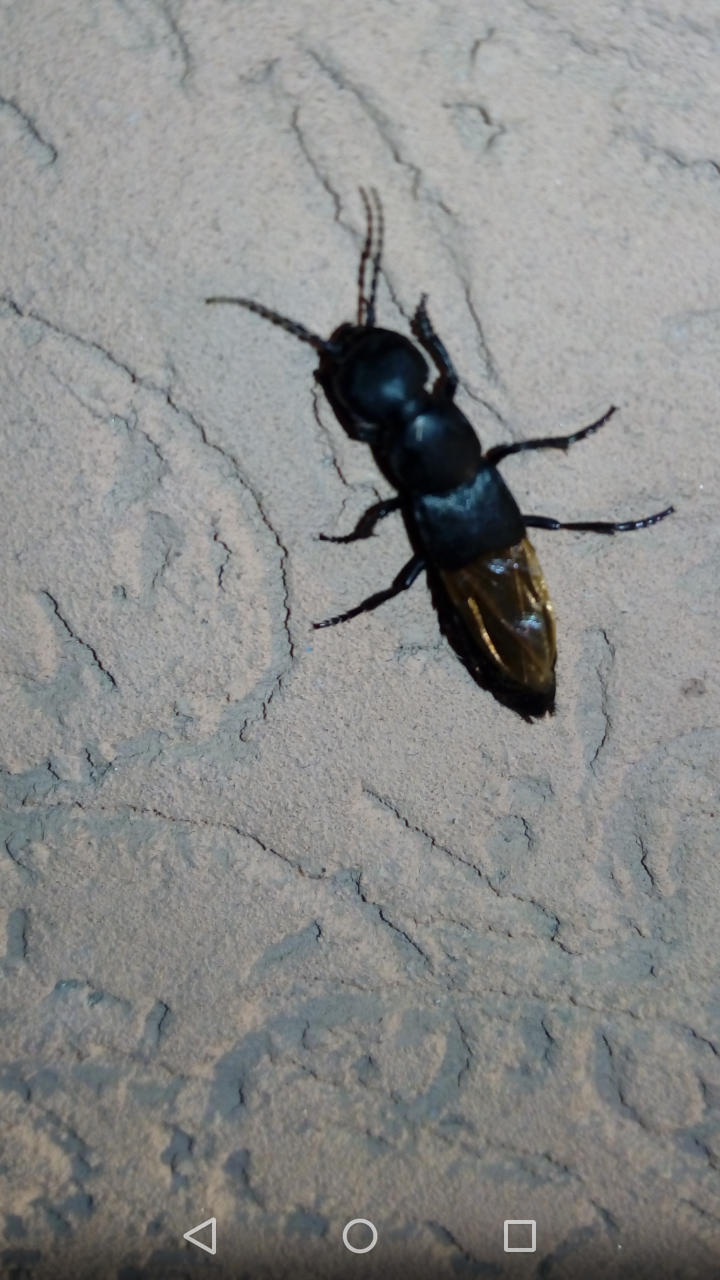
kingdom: Animalia
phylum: Arthropoda
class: Insecta
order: Coleoptera
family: Staphylinidae
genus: Ocypus
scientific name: Ocypus ophthalmicus
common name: Blue rove-beetle
